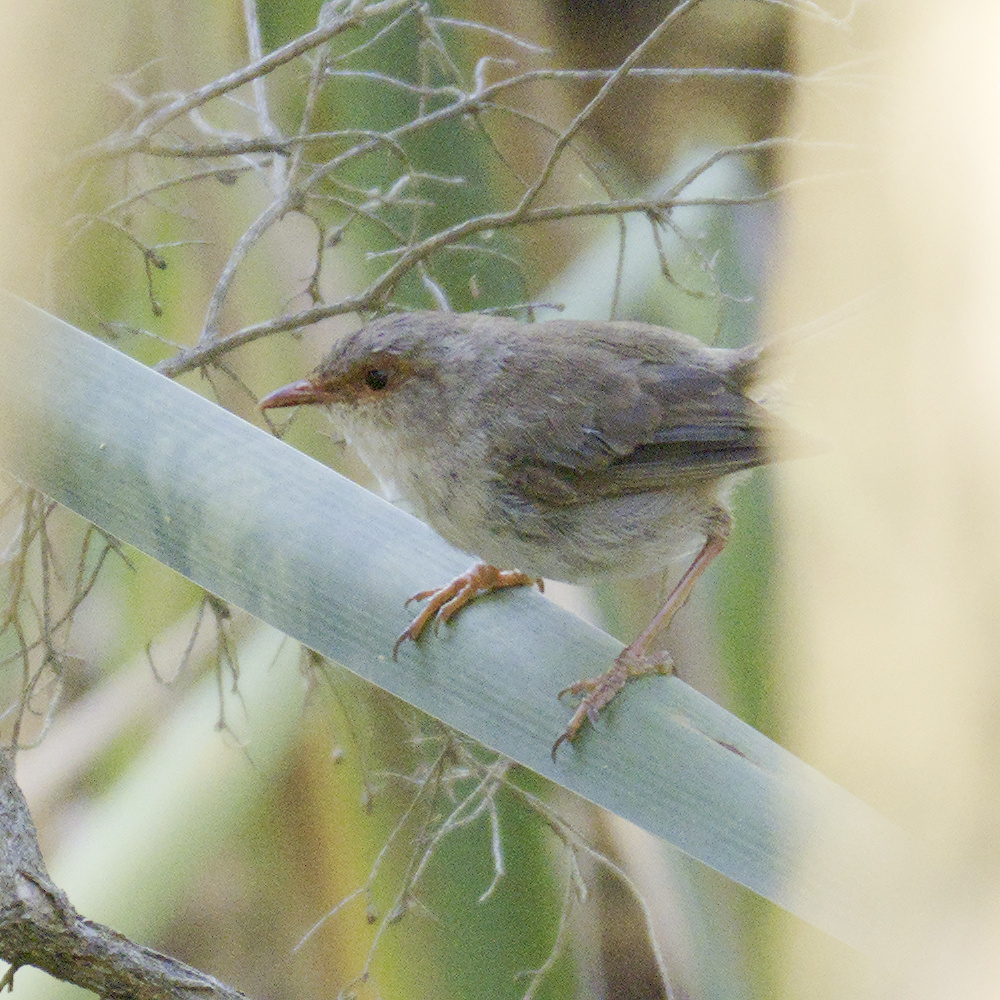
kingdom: Animalia
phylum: Chordata
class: Aves
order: Passeriformes
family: Maluridae
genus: Malurus
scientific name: Malurus cyaneus
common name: Superb fairywren
